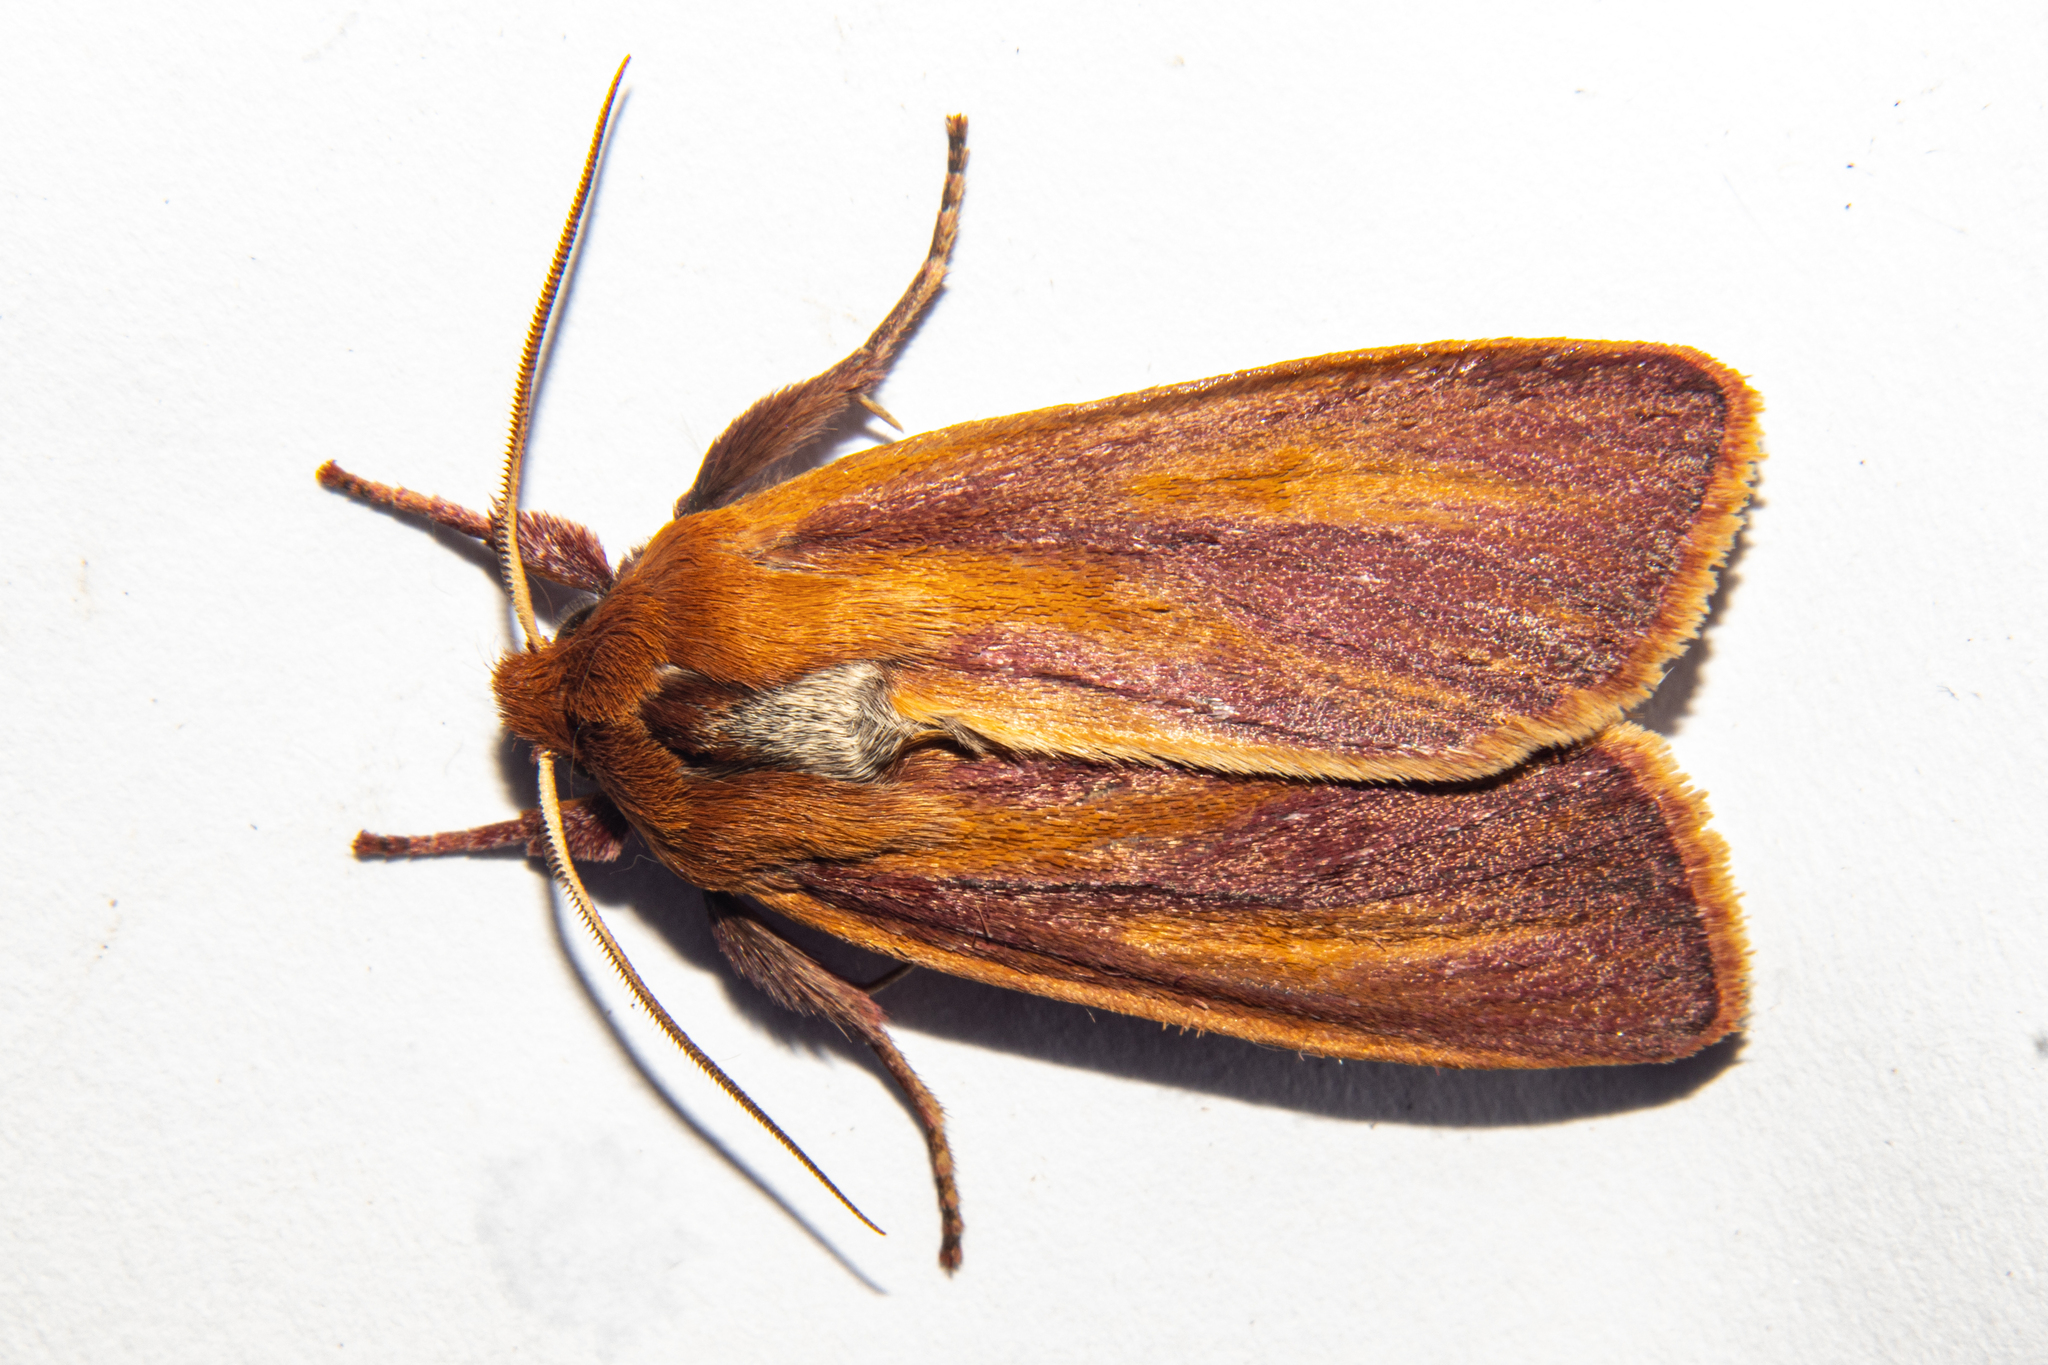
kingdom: Animalia
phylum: Arthropoda
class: Insecta
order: Lepidoptera
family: Noctuidae
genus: Ichneutica
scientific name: Ichneutica
